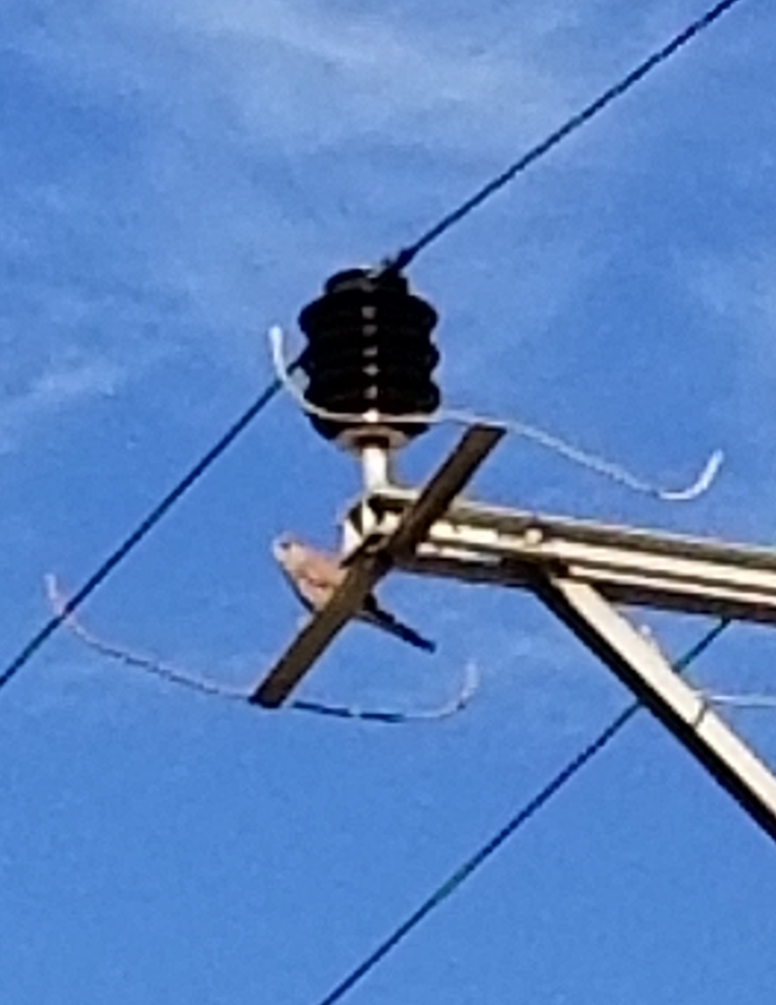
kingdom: Animalia
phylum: Chordata
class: Aves
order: Falconiformes
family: Falconidae
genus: Falco
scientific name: Falco tinnunculus
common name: Common kestrel
